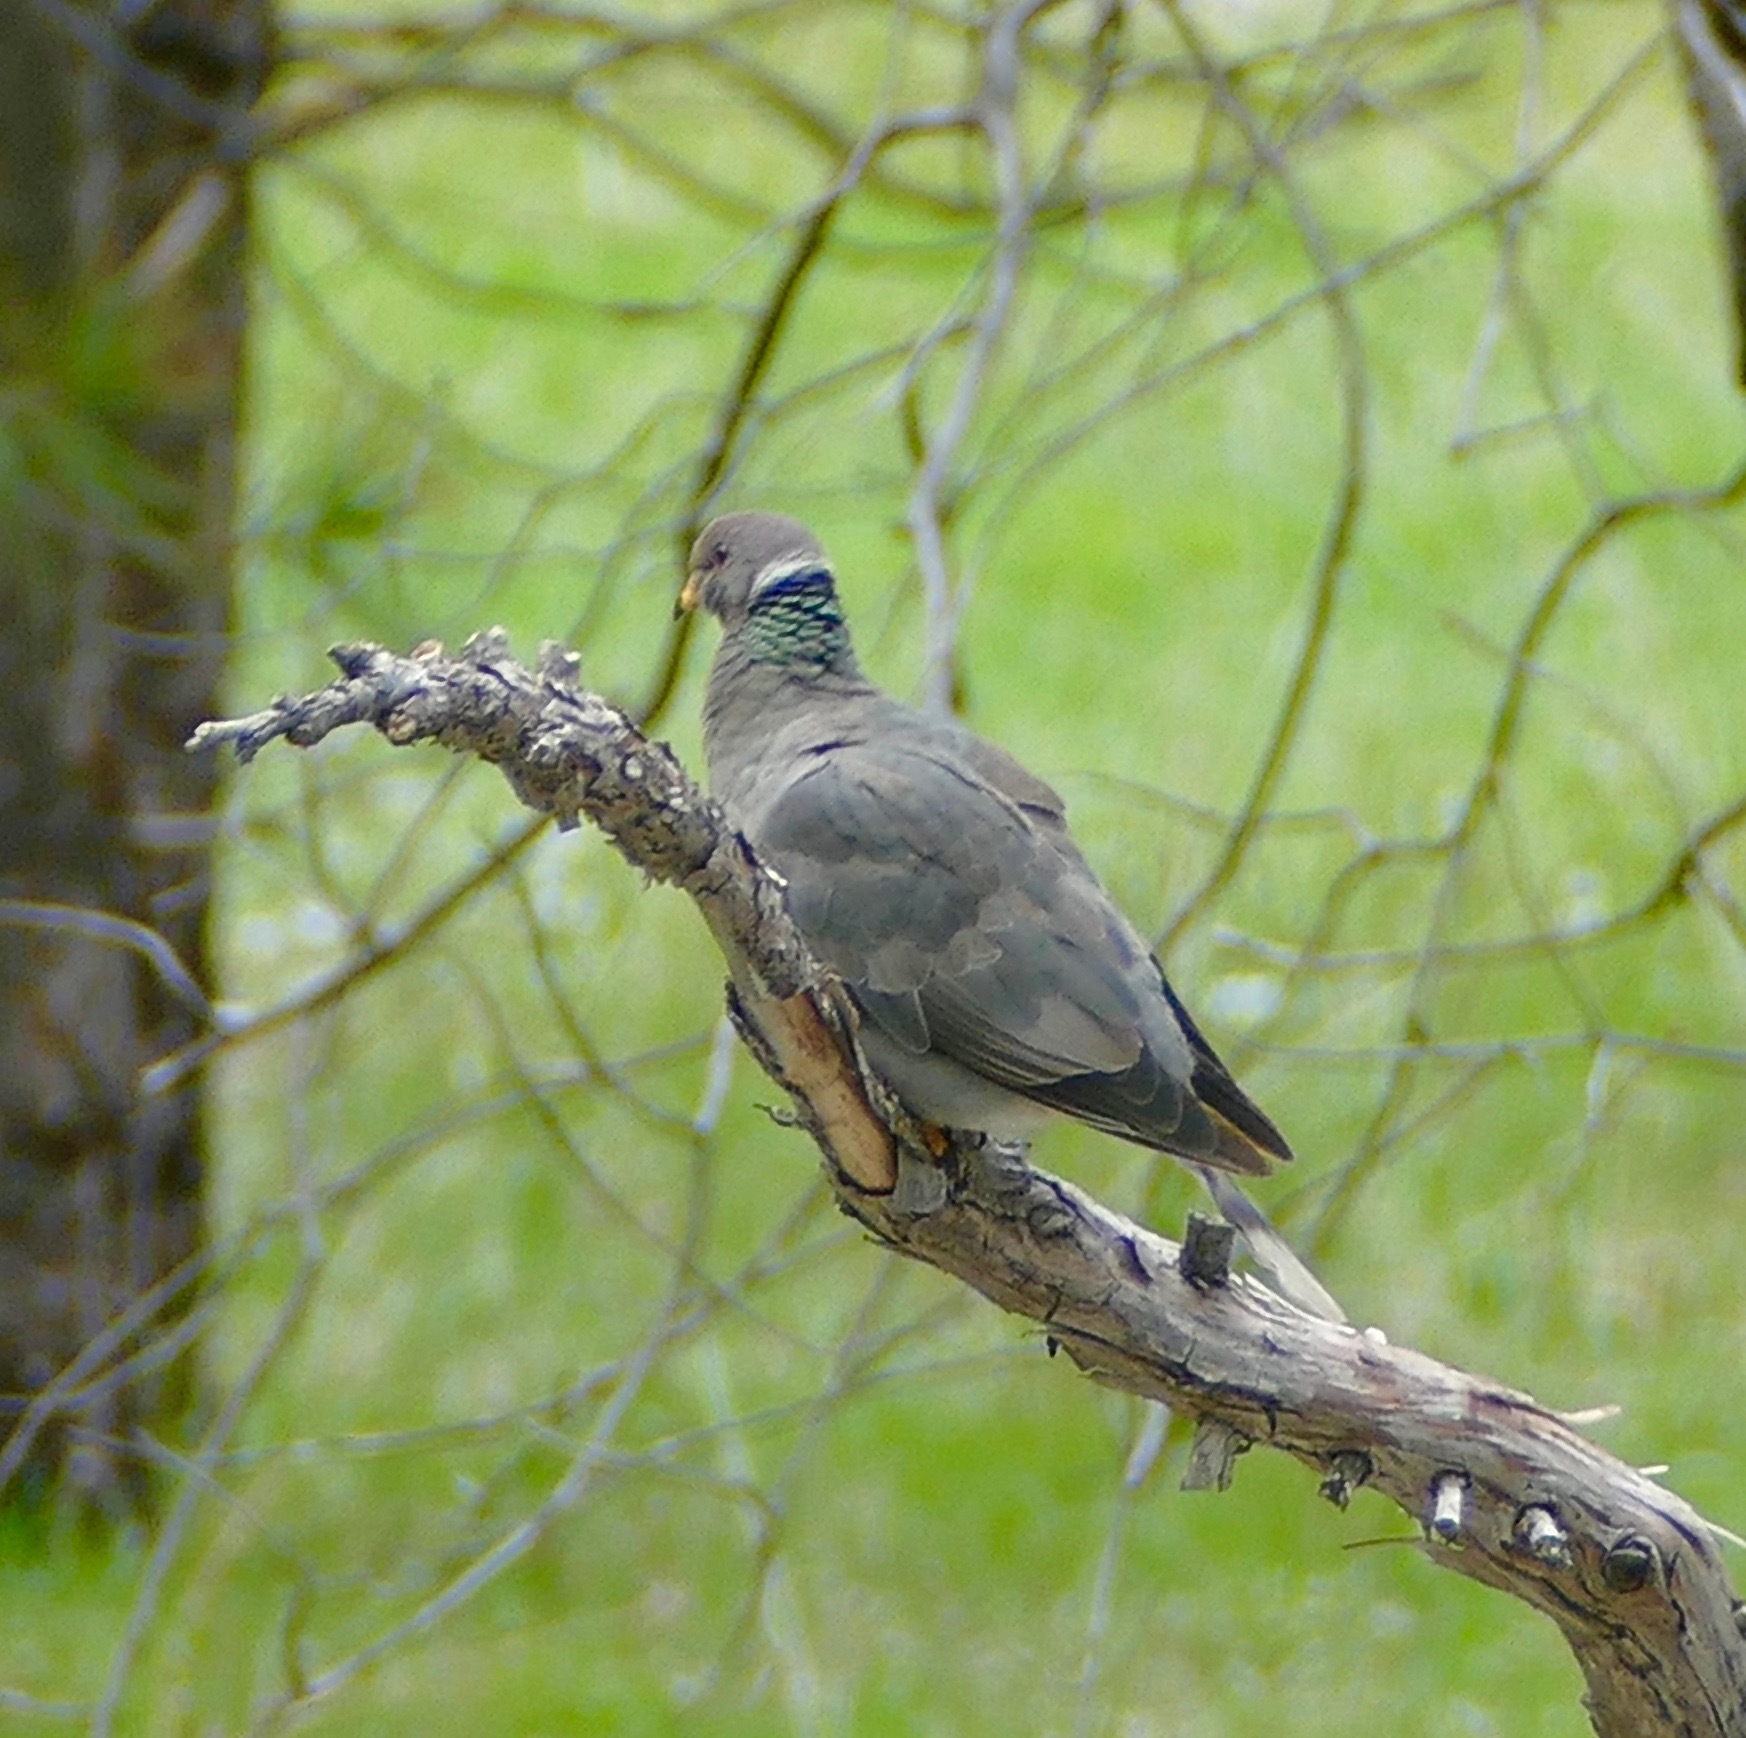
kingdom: Animalia
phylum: Chordata
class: Aves
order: Columbiformes
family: Columbidae
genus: Patagioenas
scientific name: Patagioenas fasciata
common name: Band-tailed pigeon
